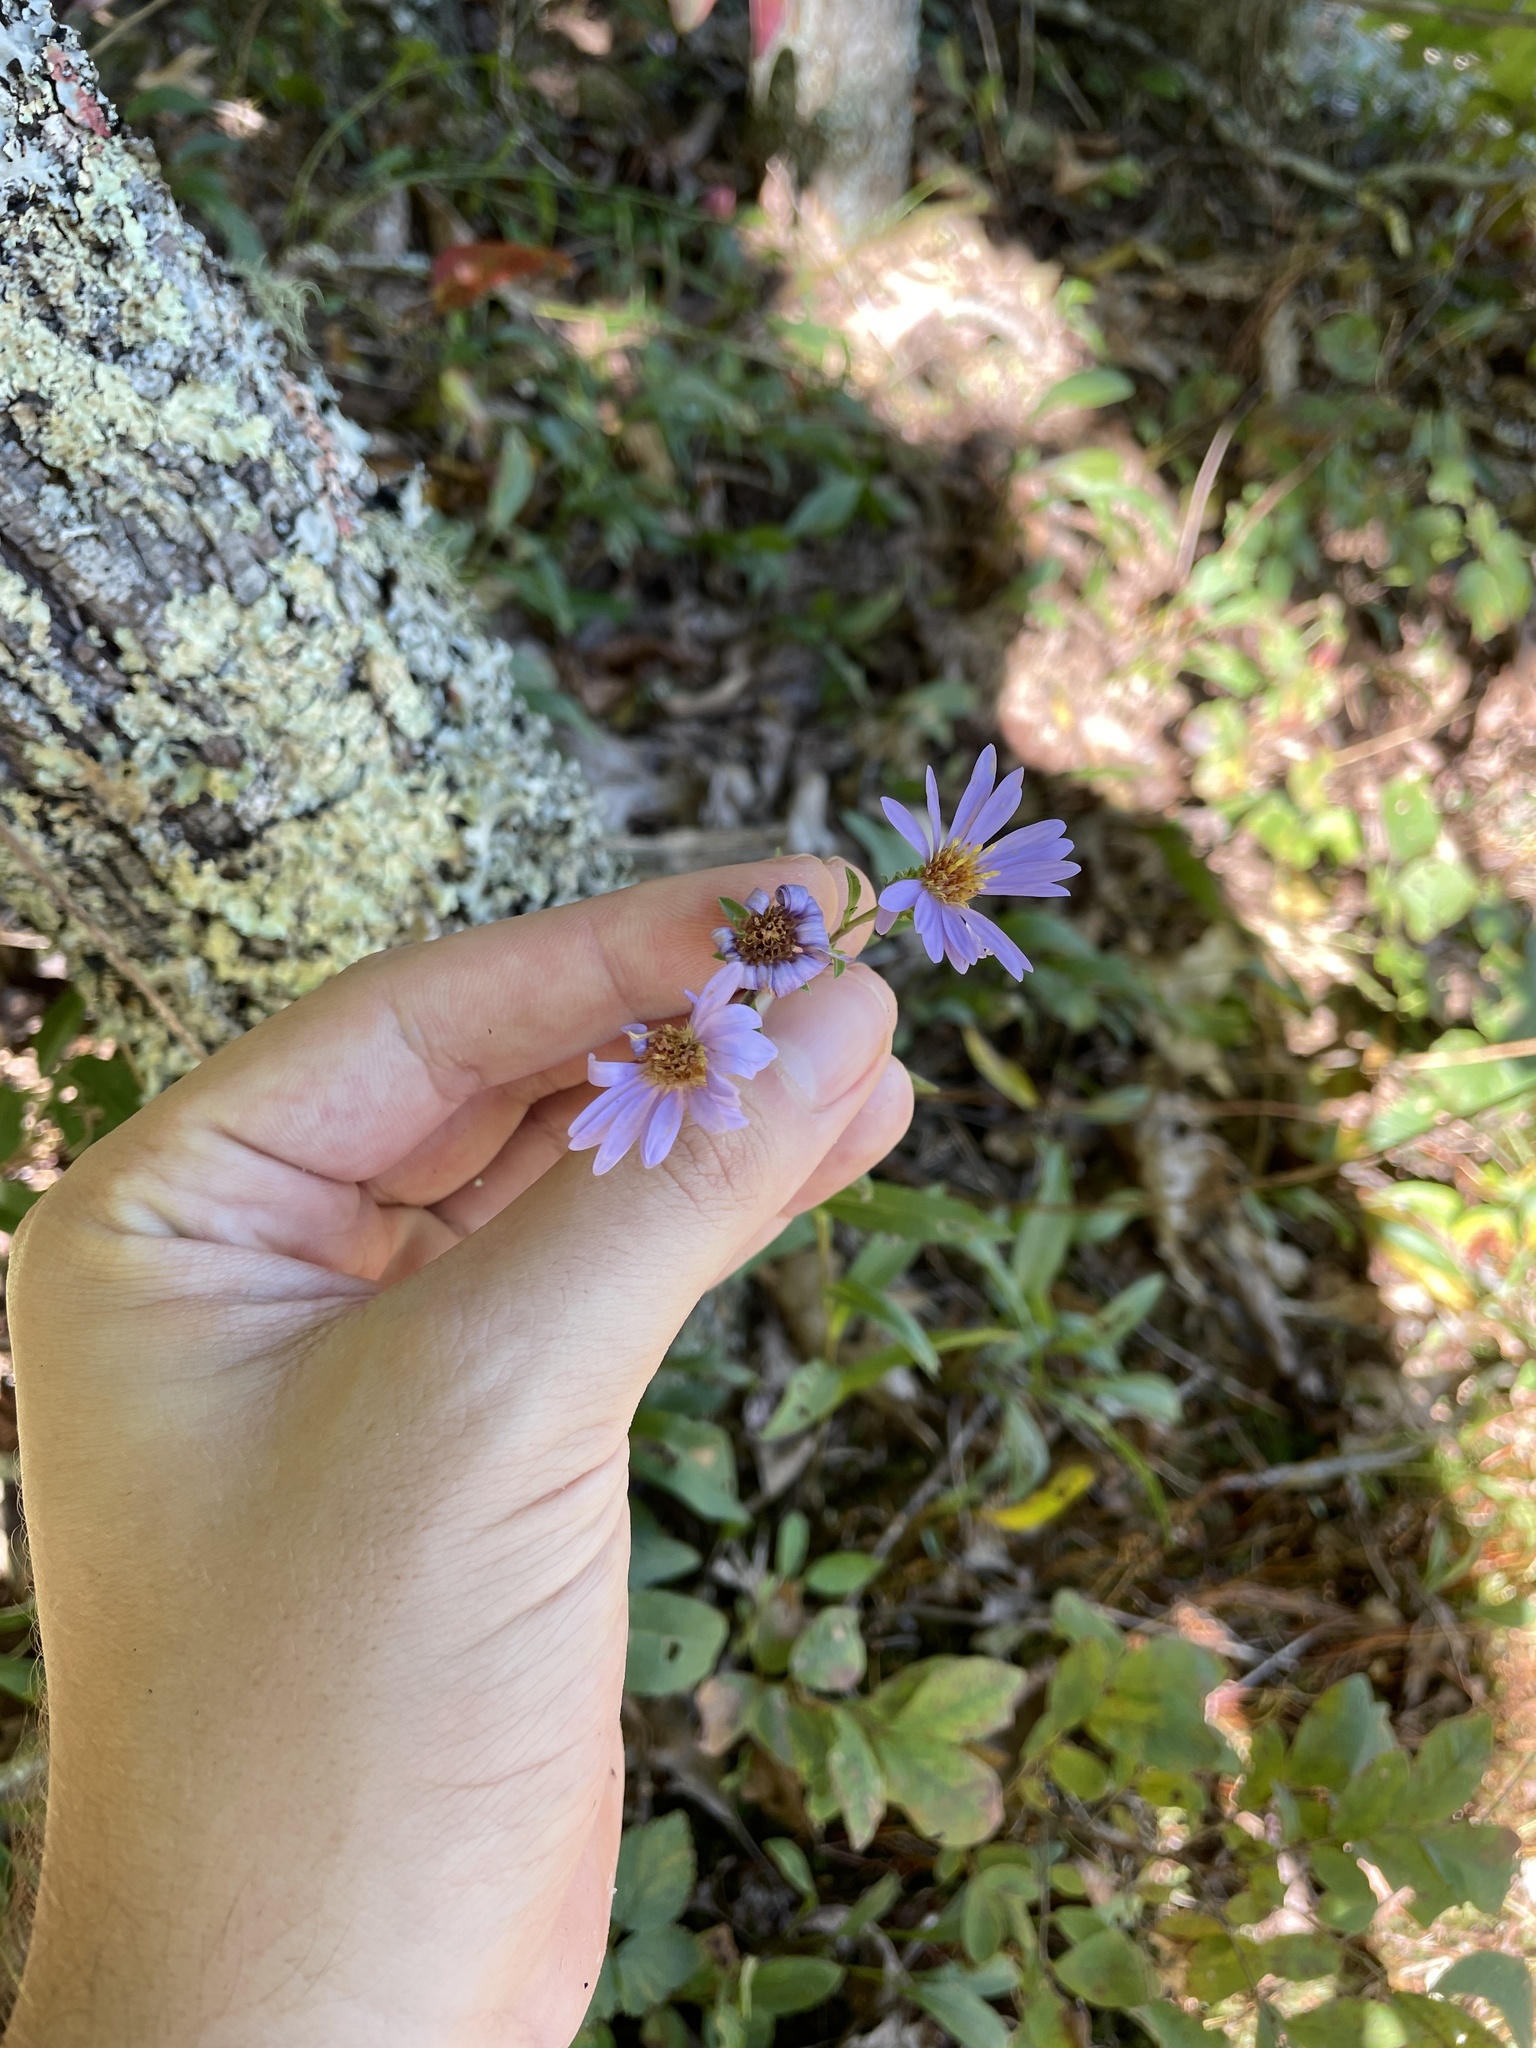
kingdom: Plantae
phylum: Tracheophyta
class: Magnoliopsida
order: Asterales
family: Asteraceae
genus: Eurybia
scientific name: Eurybia surculosa
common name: Creeping aster
